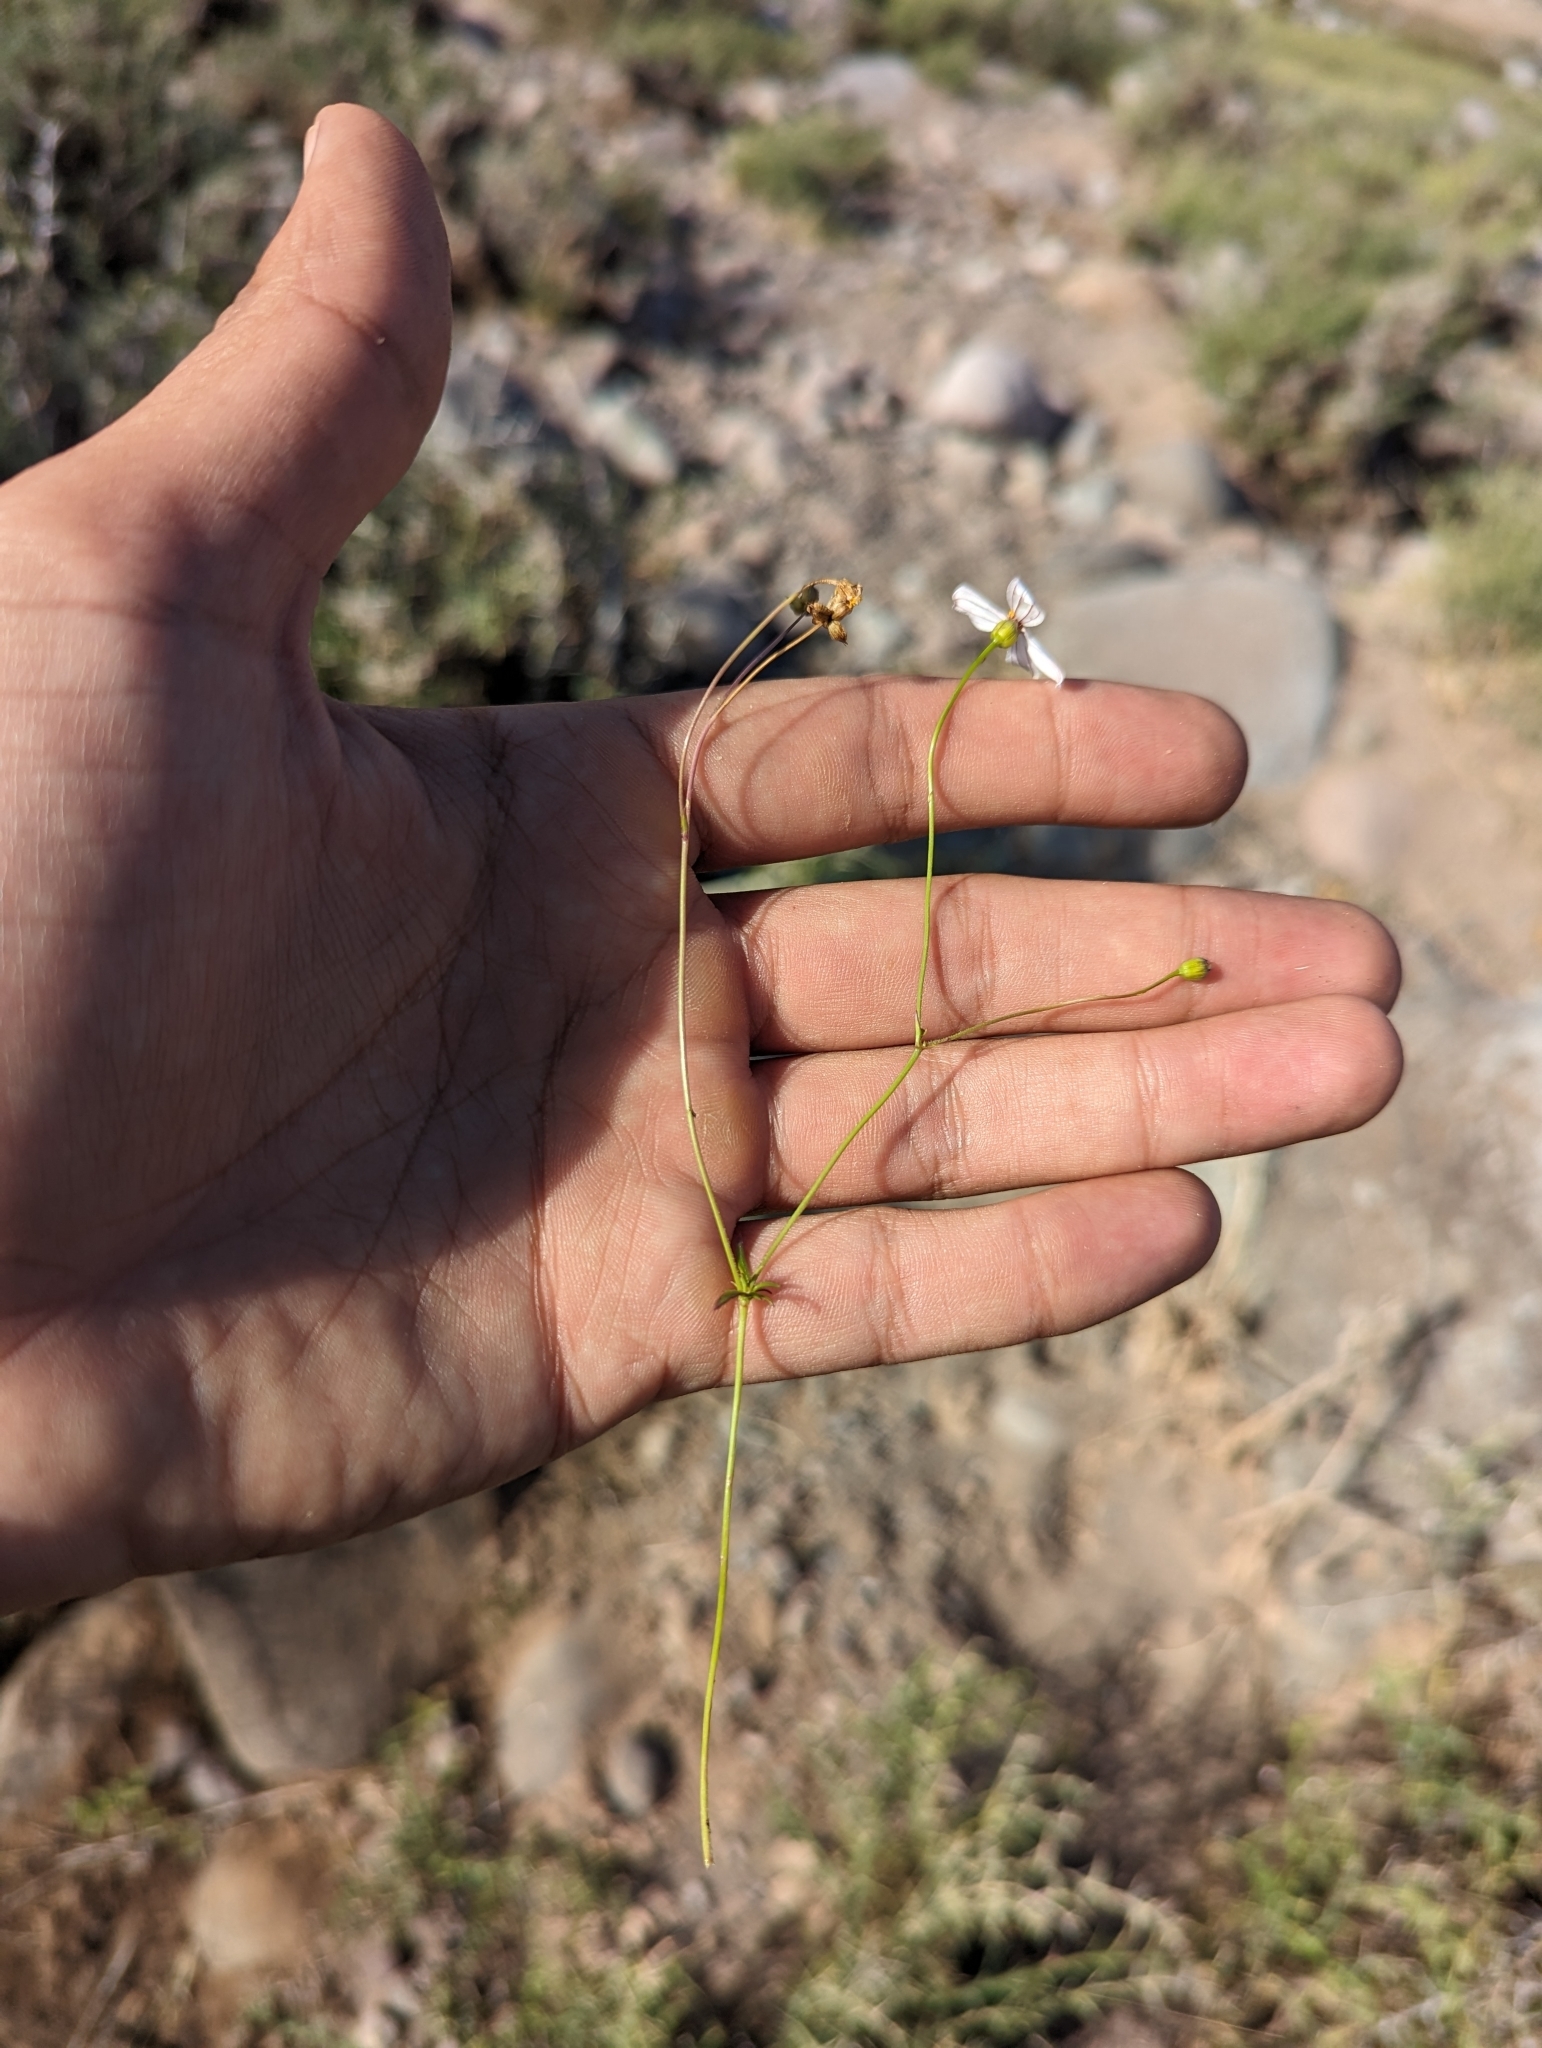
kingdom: Plantae
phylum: Tracheophyta
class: Magnoliopsida
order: Asterales
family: Asteraceae
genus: Coreocarpus
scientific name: Coreocarpus parthenioides
